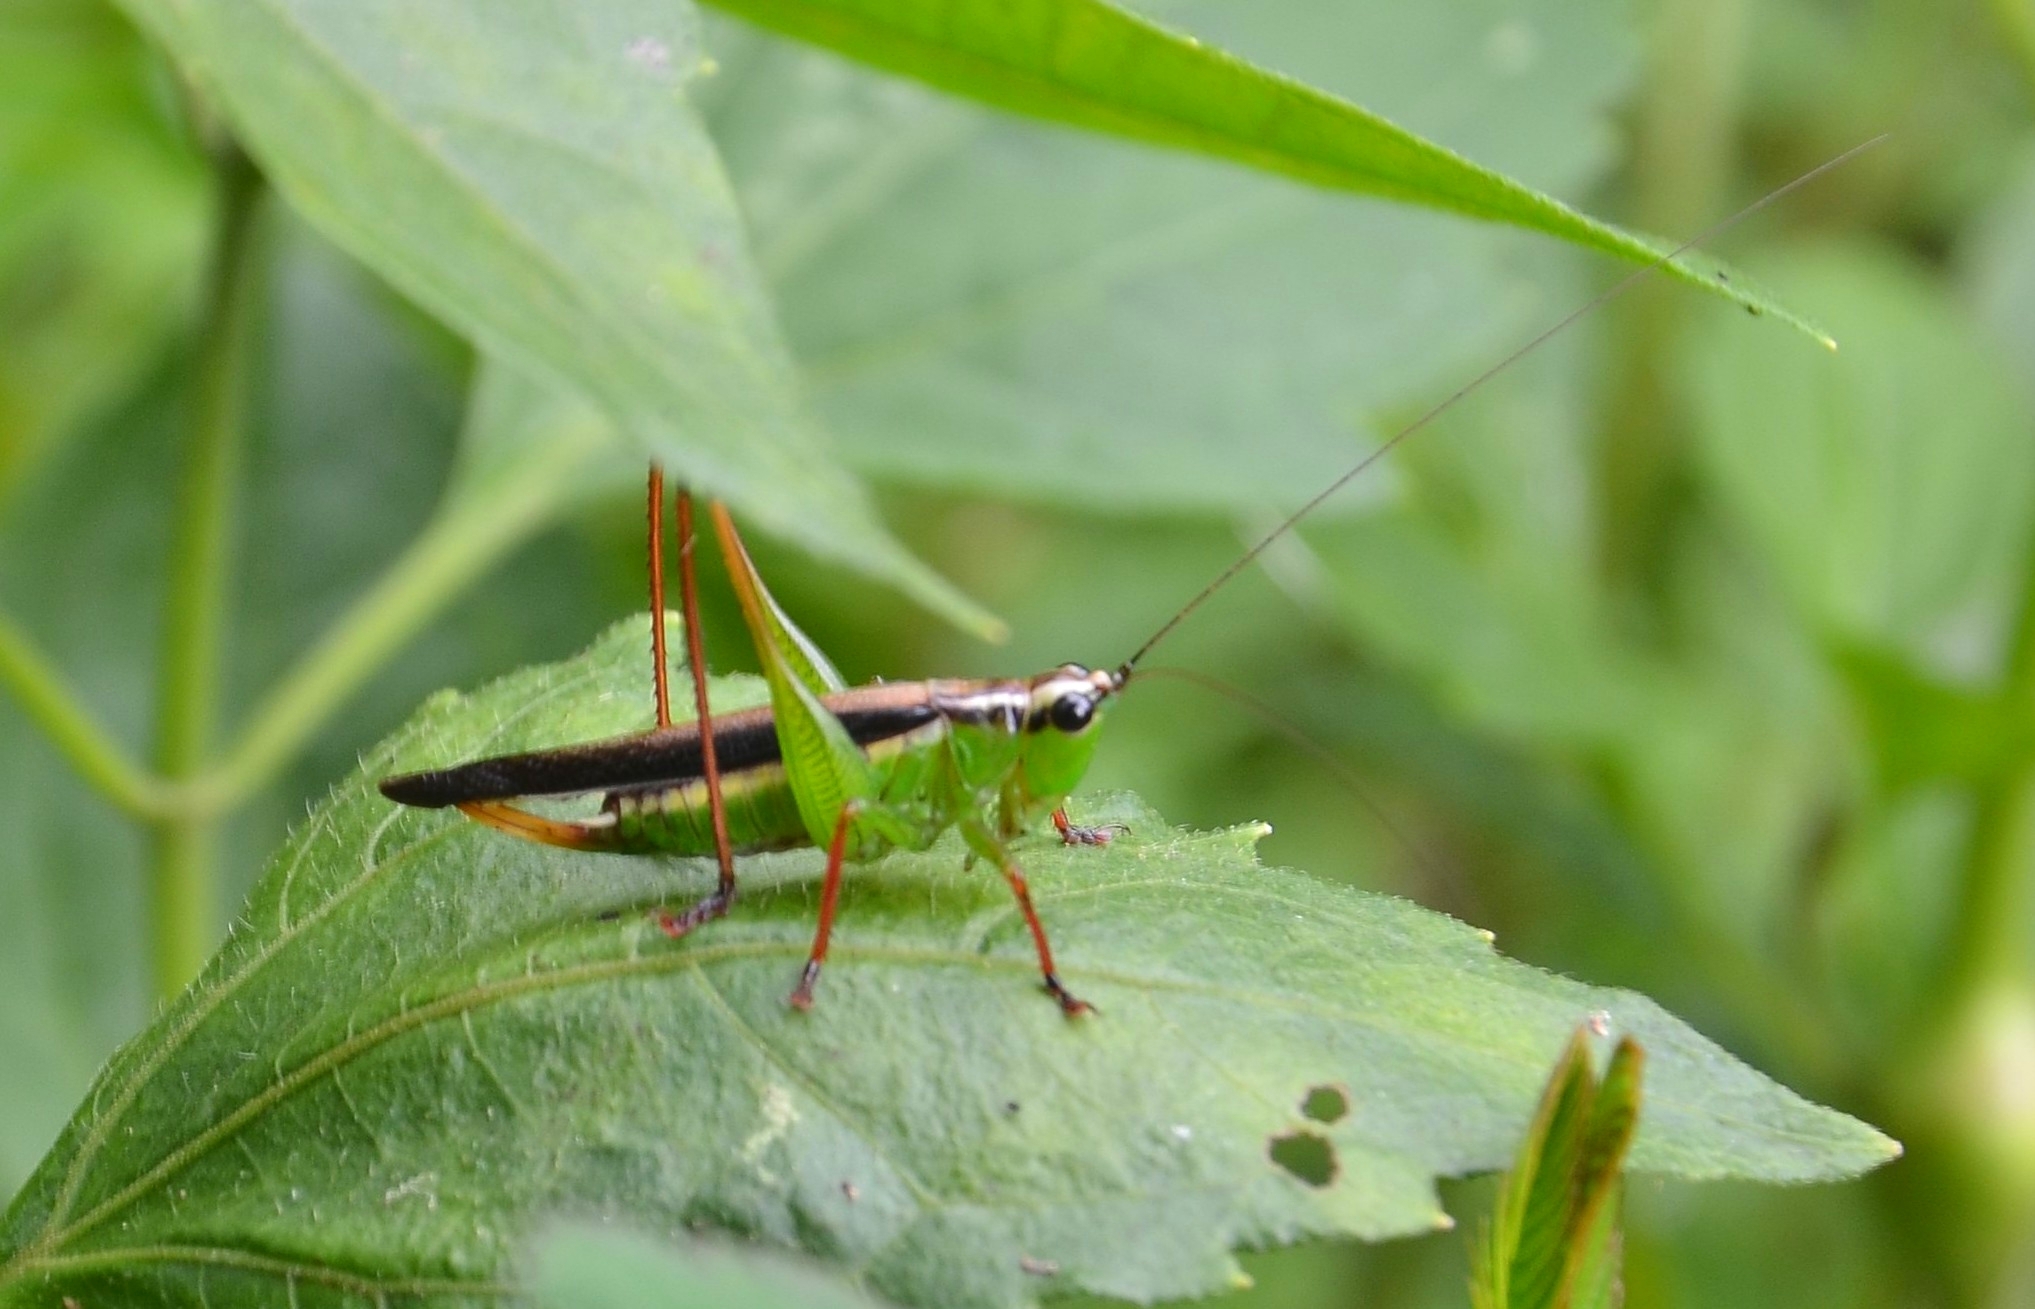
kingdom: Animalia
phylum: Arthropoda
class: Insecta
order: Orthoptera
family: Tettigoniidae
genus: Conocephalus
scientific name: Conocephalus melaenus
